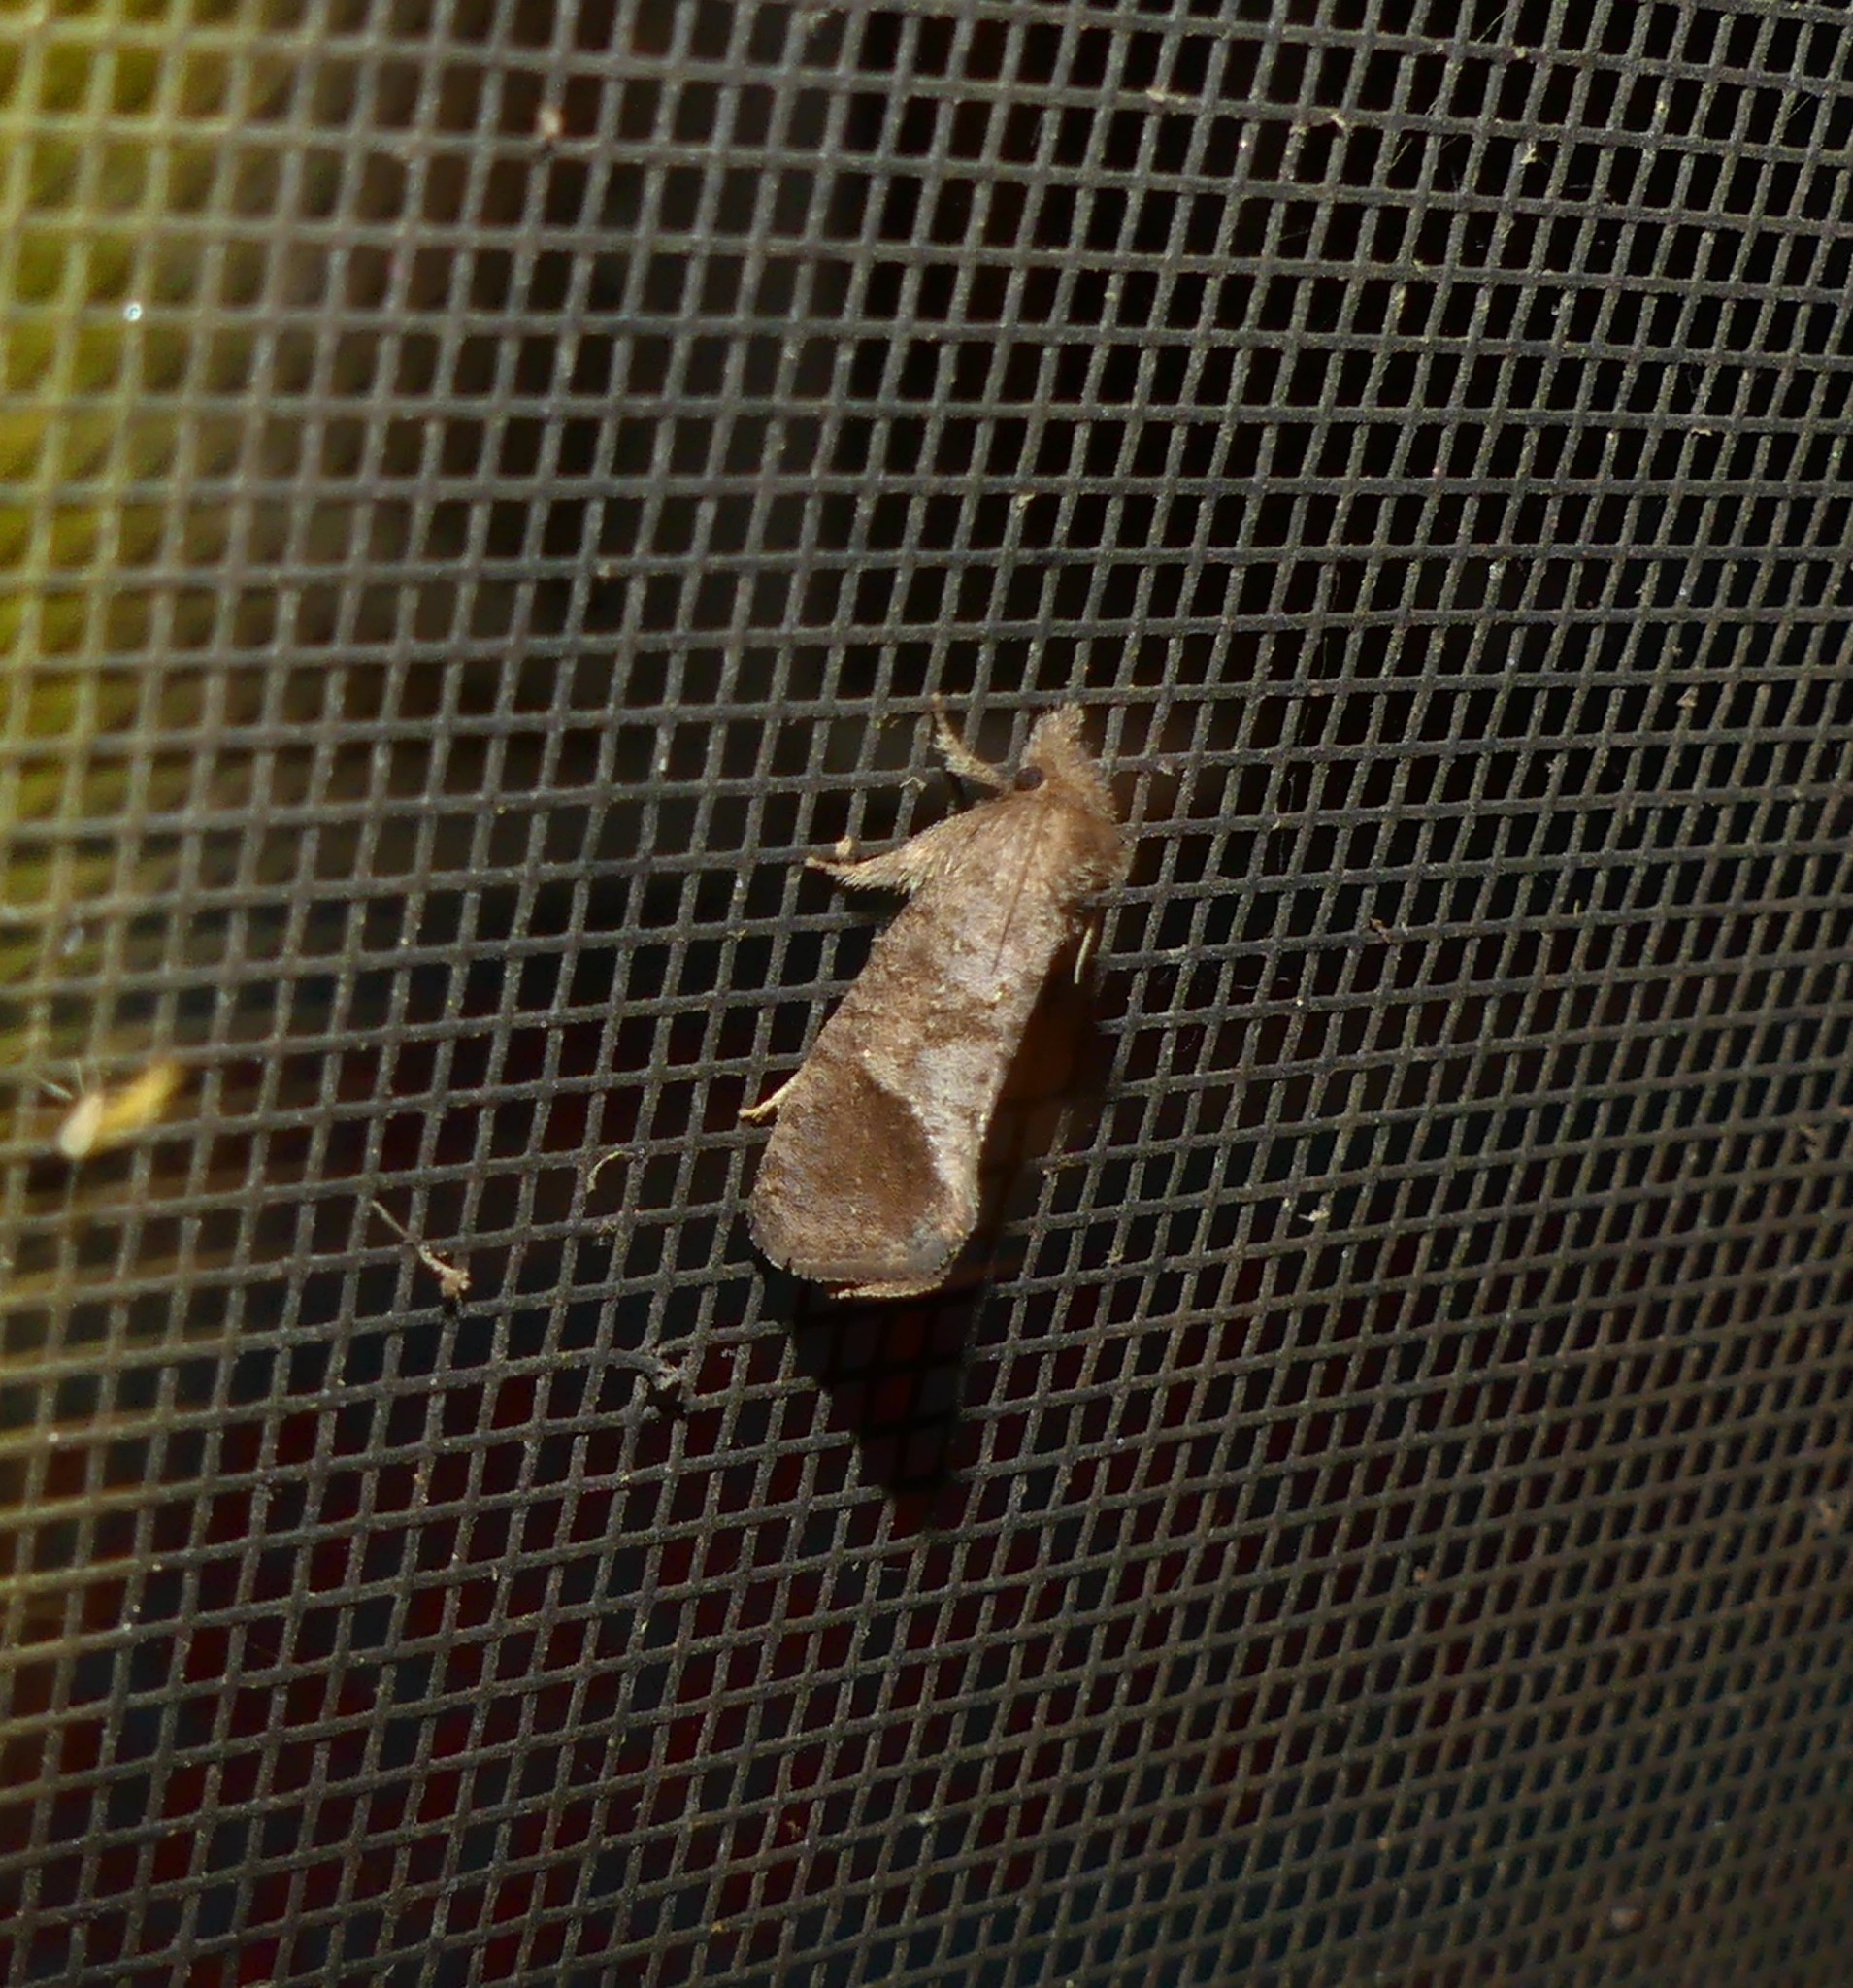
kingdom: Animalia
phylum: Arthropoda
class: Insecta
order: Lepidoptera
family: Tineidae
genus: Acrolophus
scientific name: Acrolophus texanella
